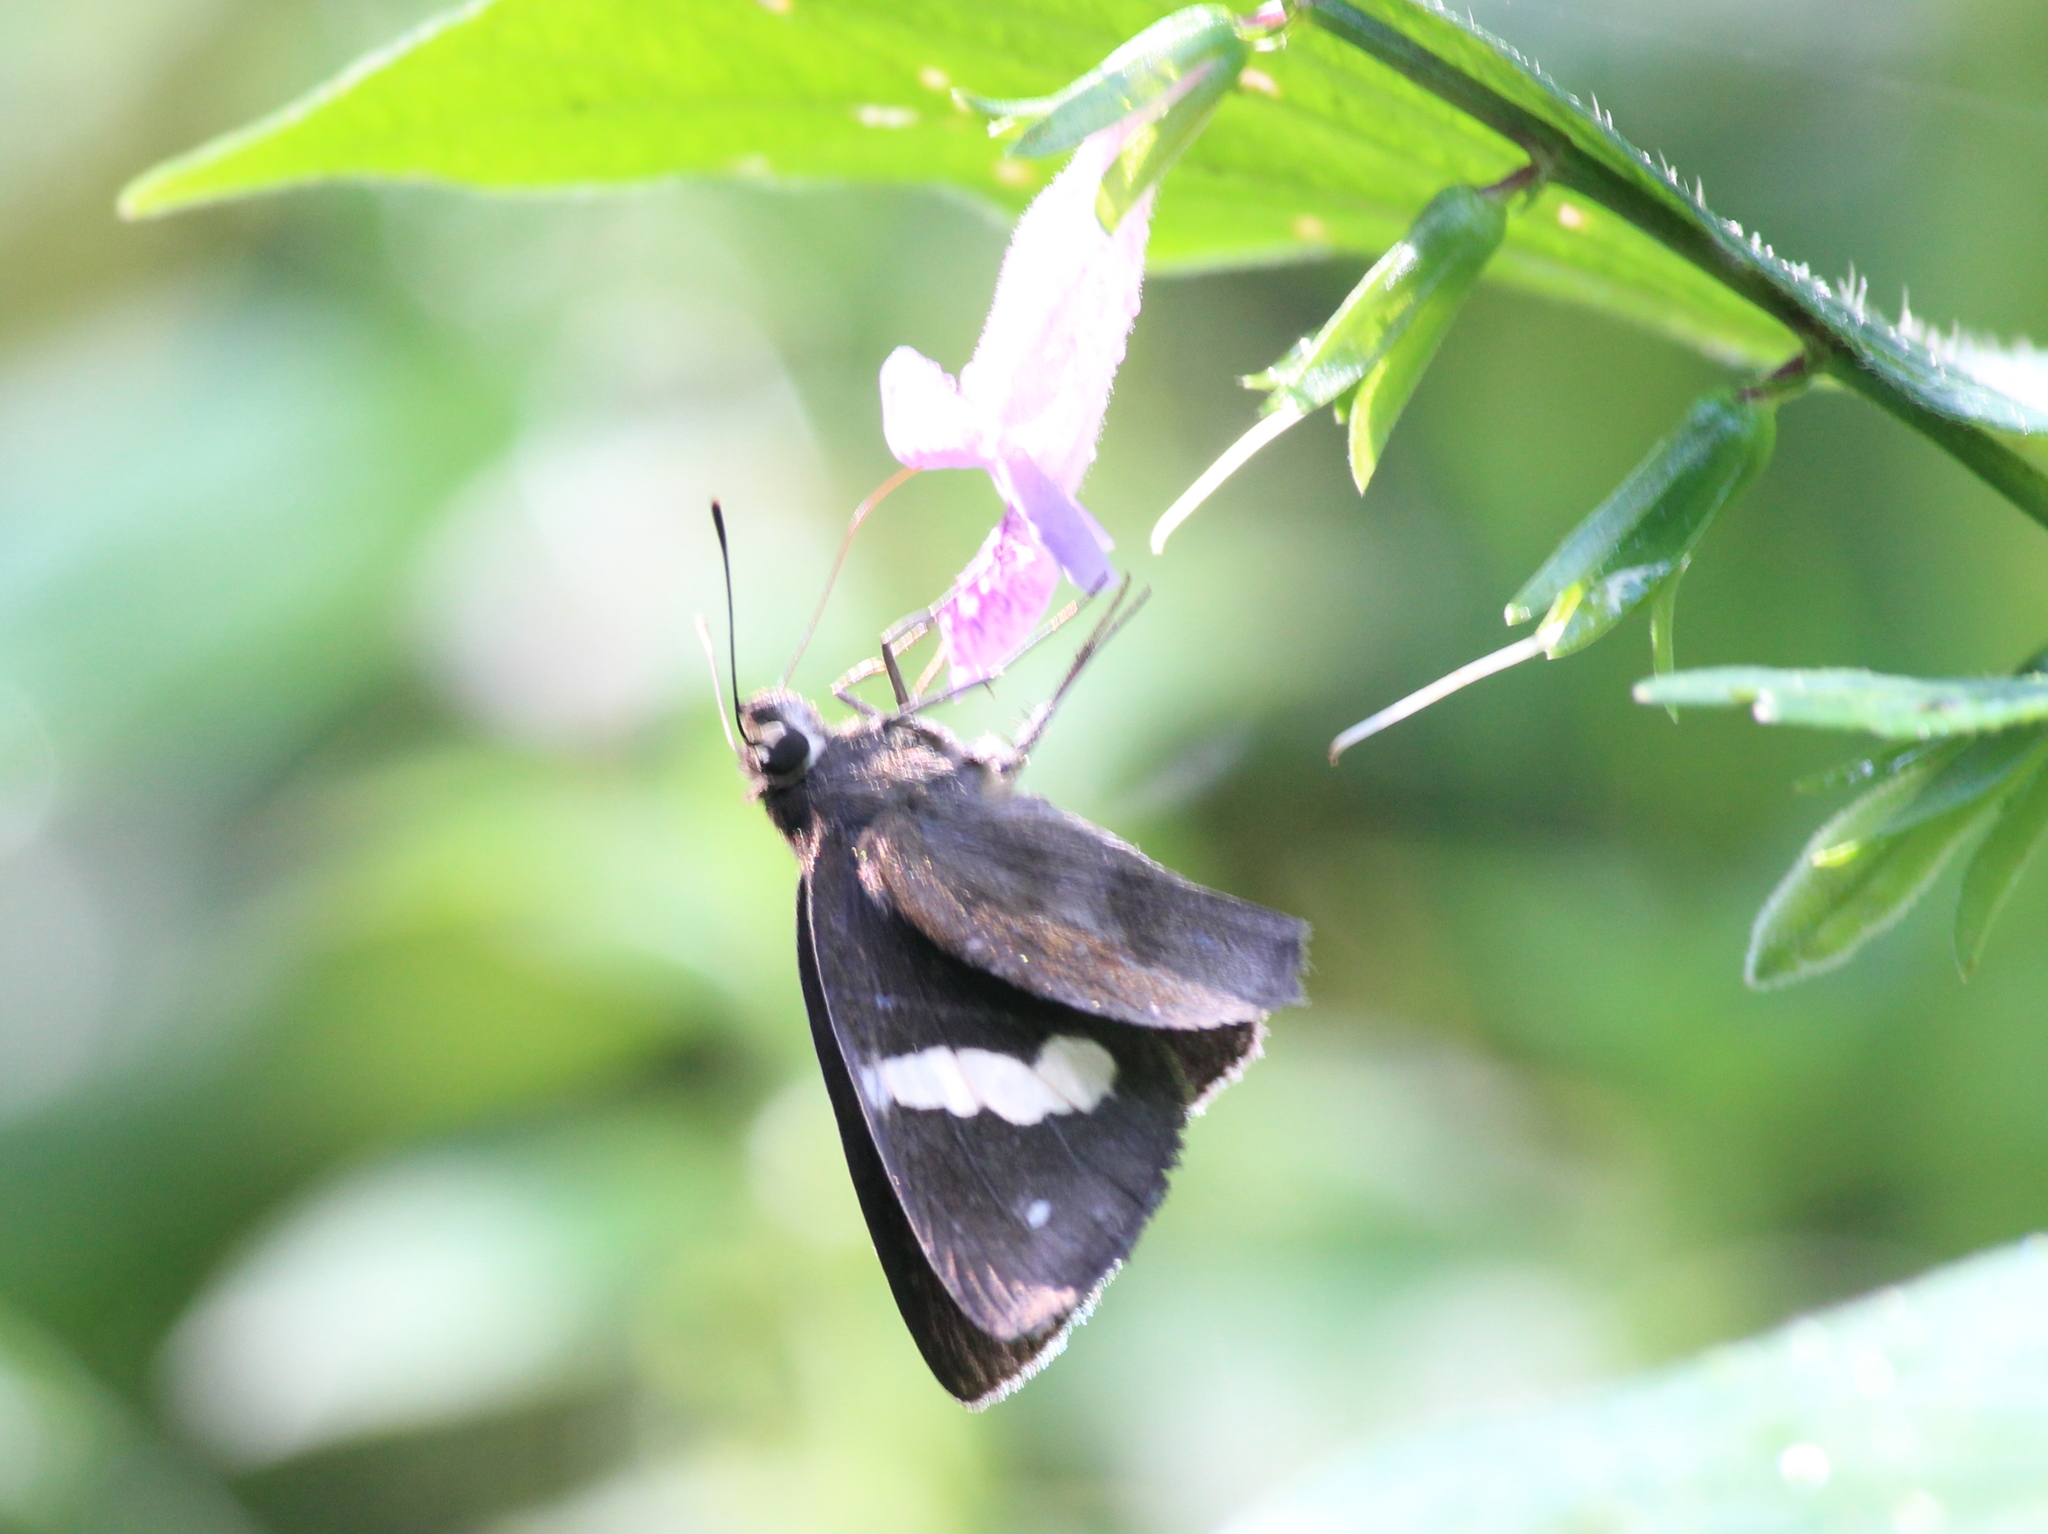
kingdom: Animalia
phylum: Arthropoda
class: Insecta
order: Lepidoptera
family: Hesperiidae
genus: Notocrypta
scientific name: Notocrypta paralysos
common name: Common banded demon
